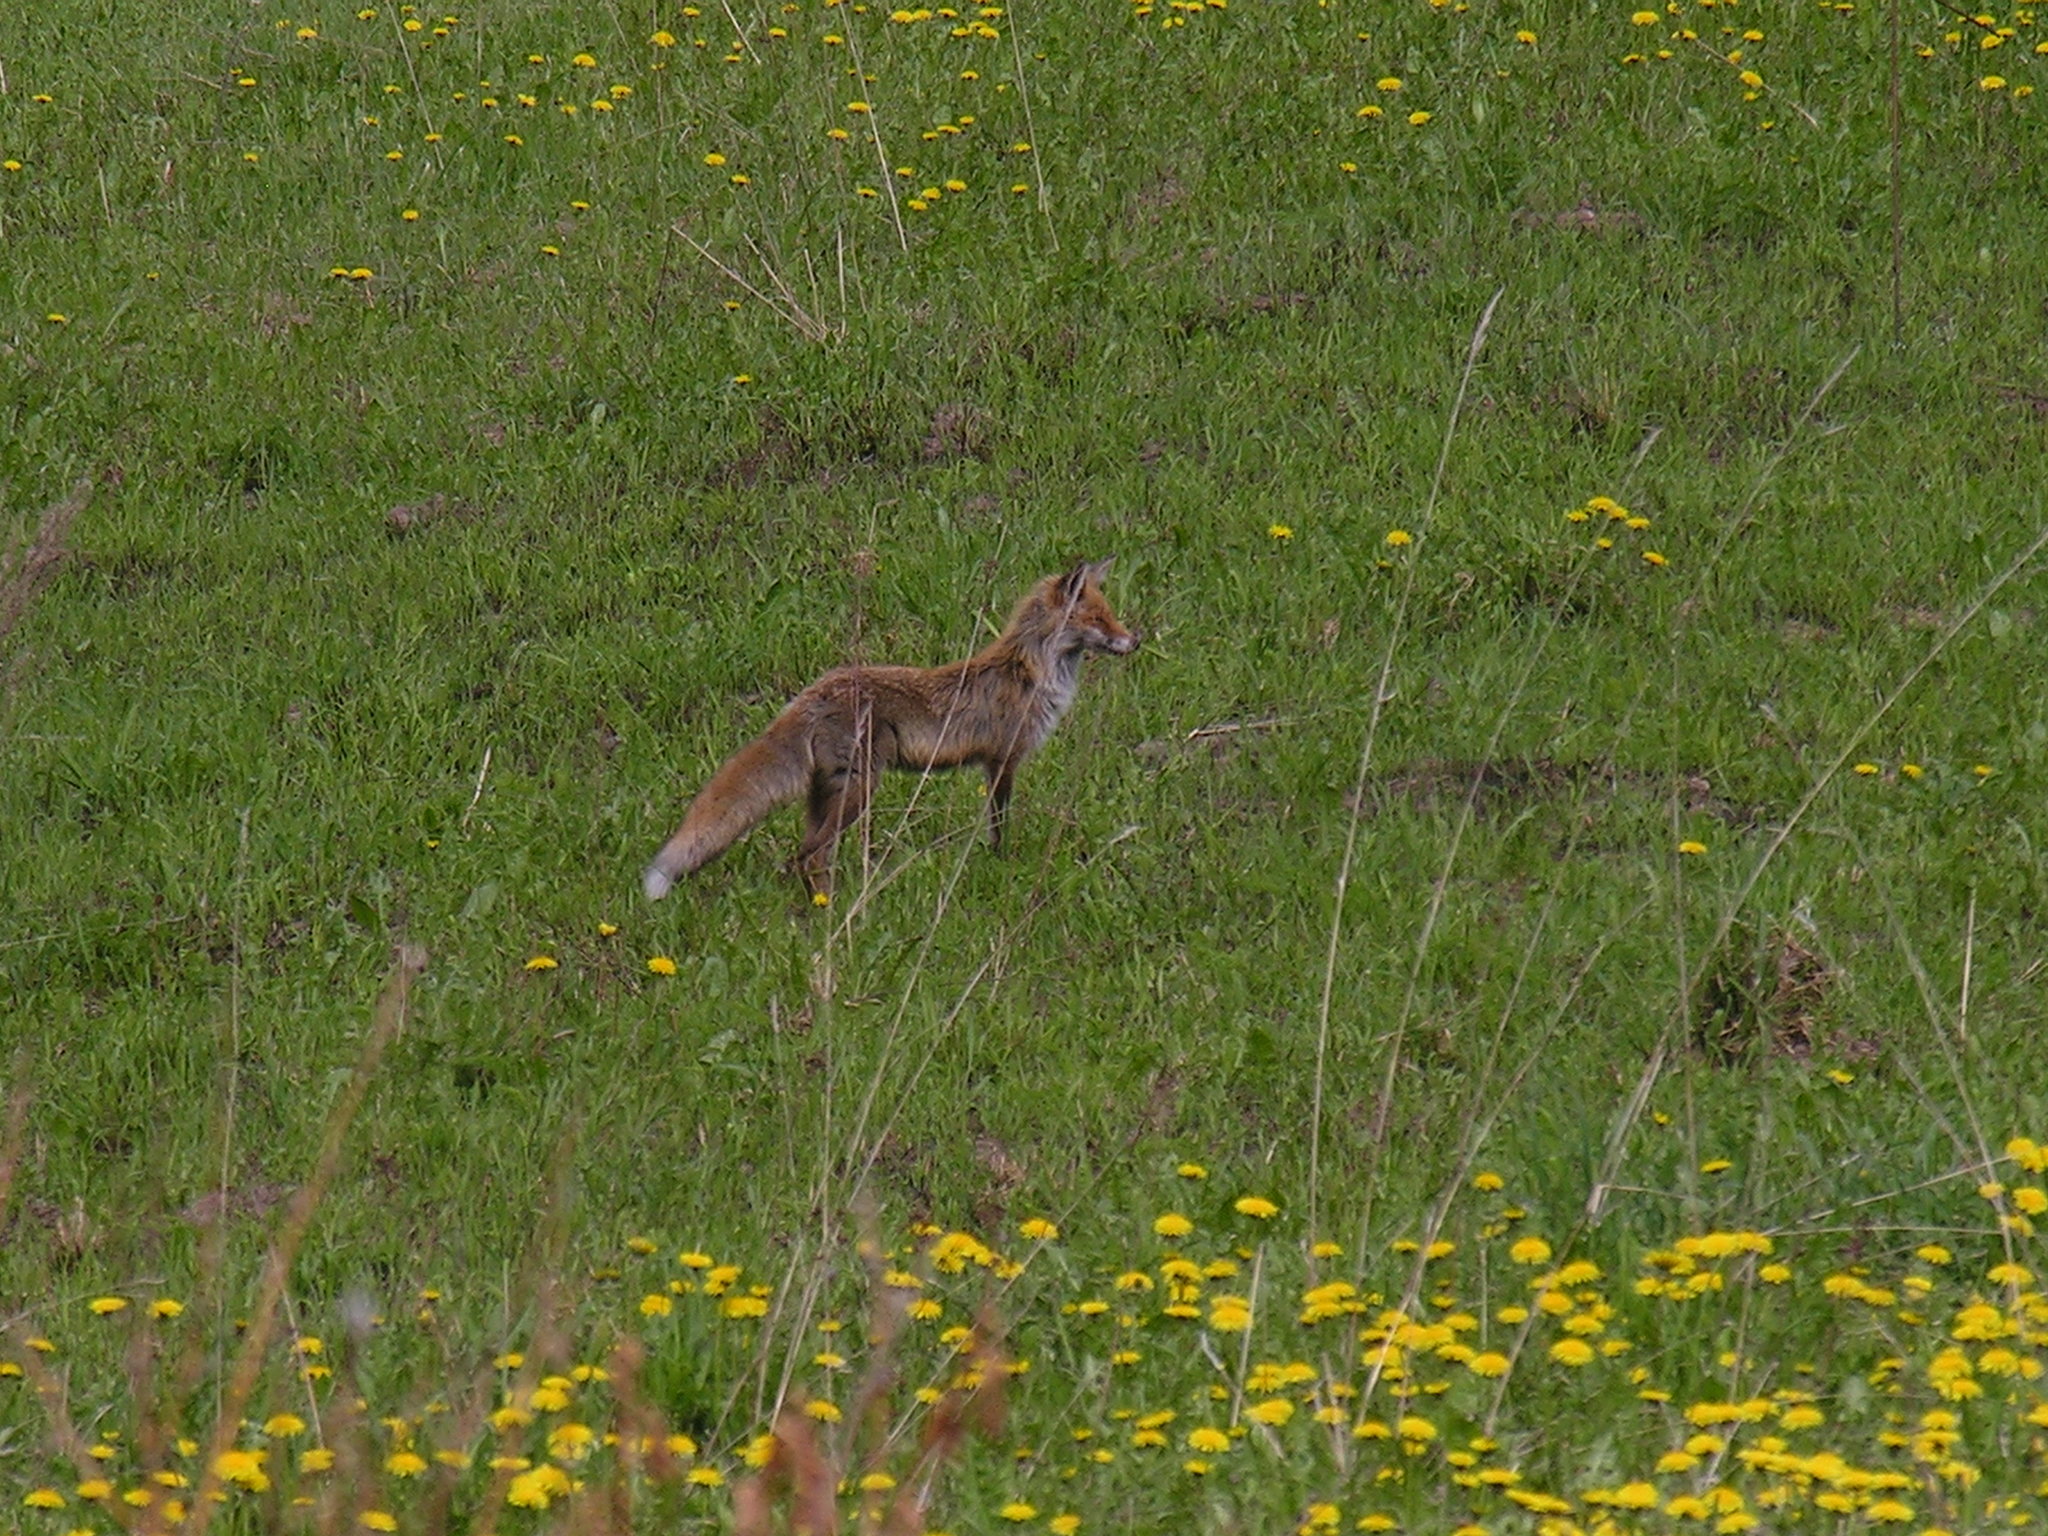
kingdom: Animalia
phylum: Chordata
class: Mammalia
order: Carnivora
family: Canidae
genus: Vulpes
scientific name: Vulpes vulpes
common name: Red fox
